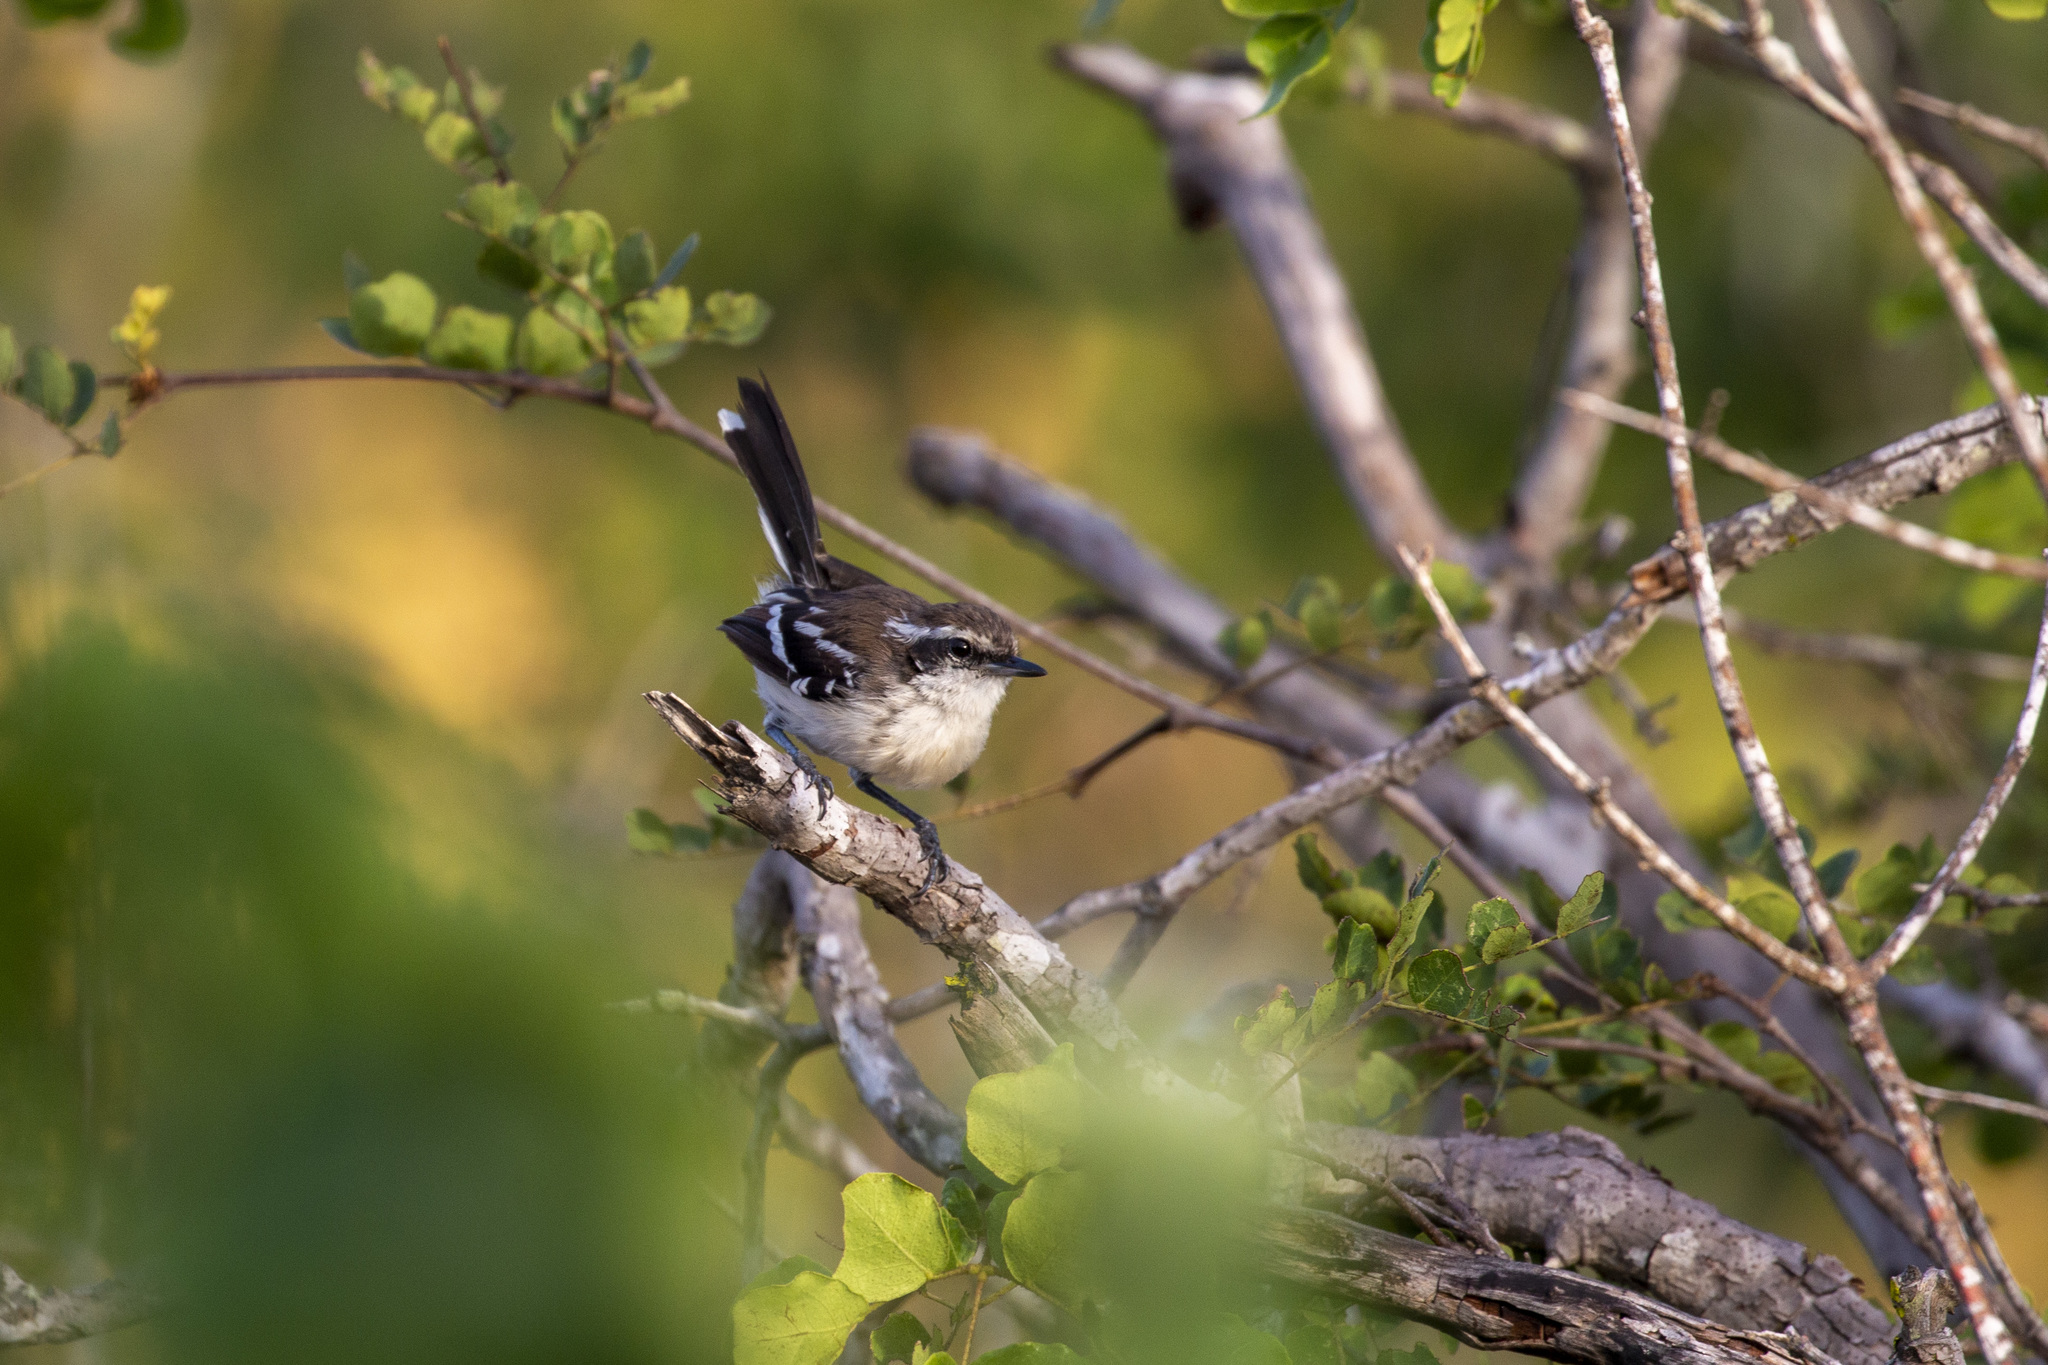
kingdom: Animalia
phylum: Chordata
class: Aves
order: Passeriformes
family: Thamnophilidae
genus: Formicivora
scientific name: Formicivora melanogaster
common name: Black-bellied antwren
